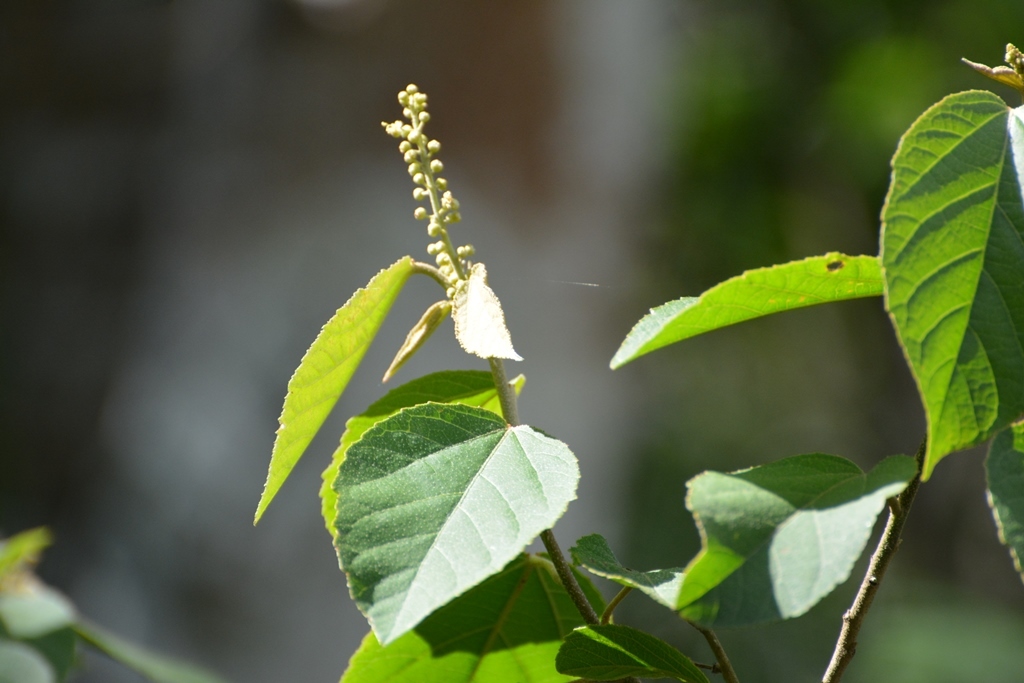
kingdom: Plantae
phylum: Tracheophyta
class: Magnoliopsida
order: Malpighiales
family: Euphorbiaceae
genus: Croton
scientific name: Croton francoanus
